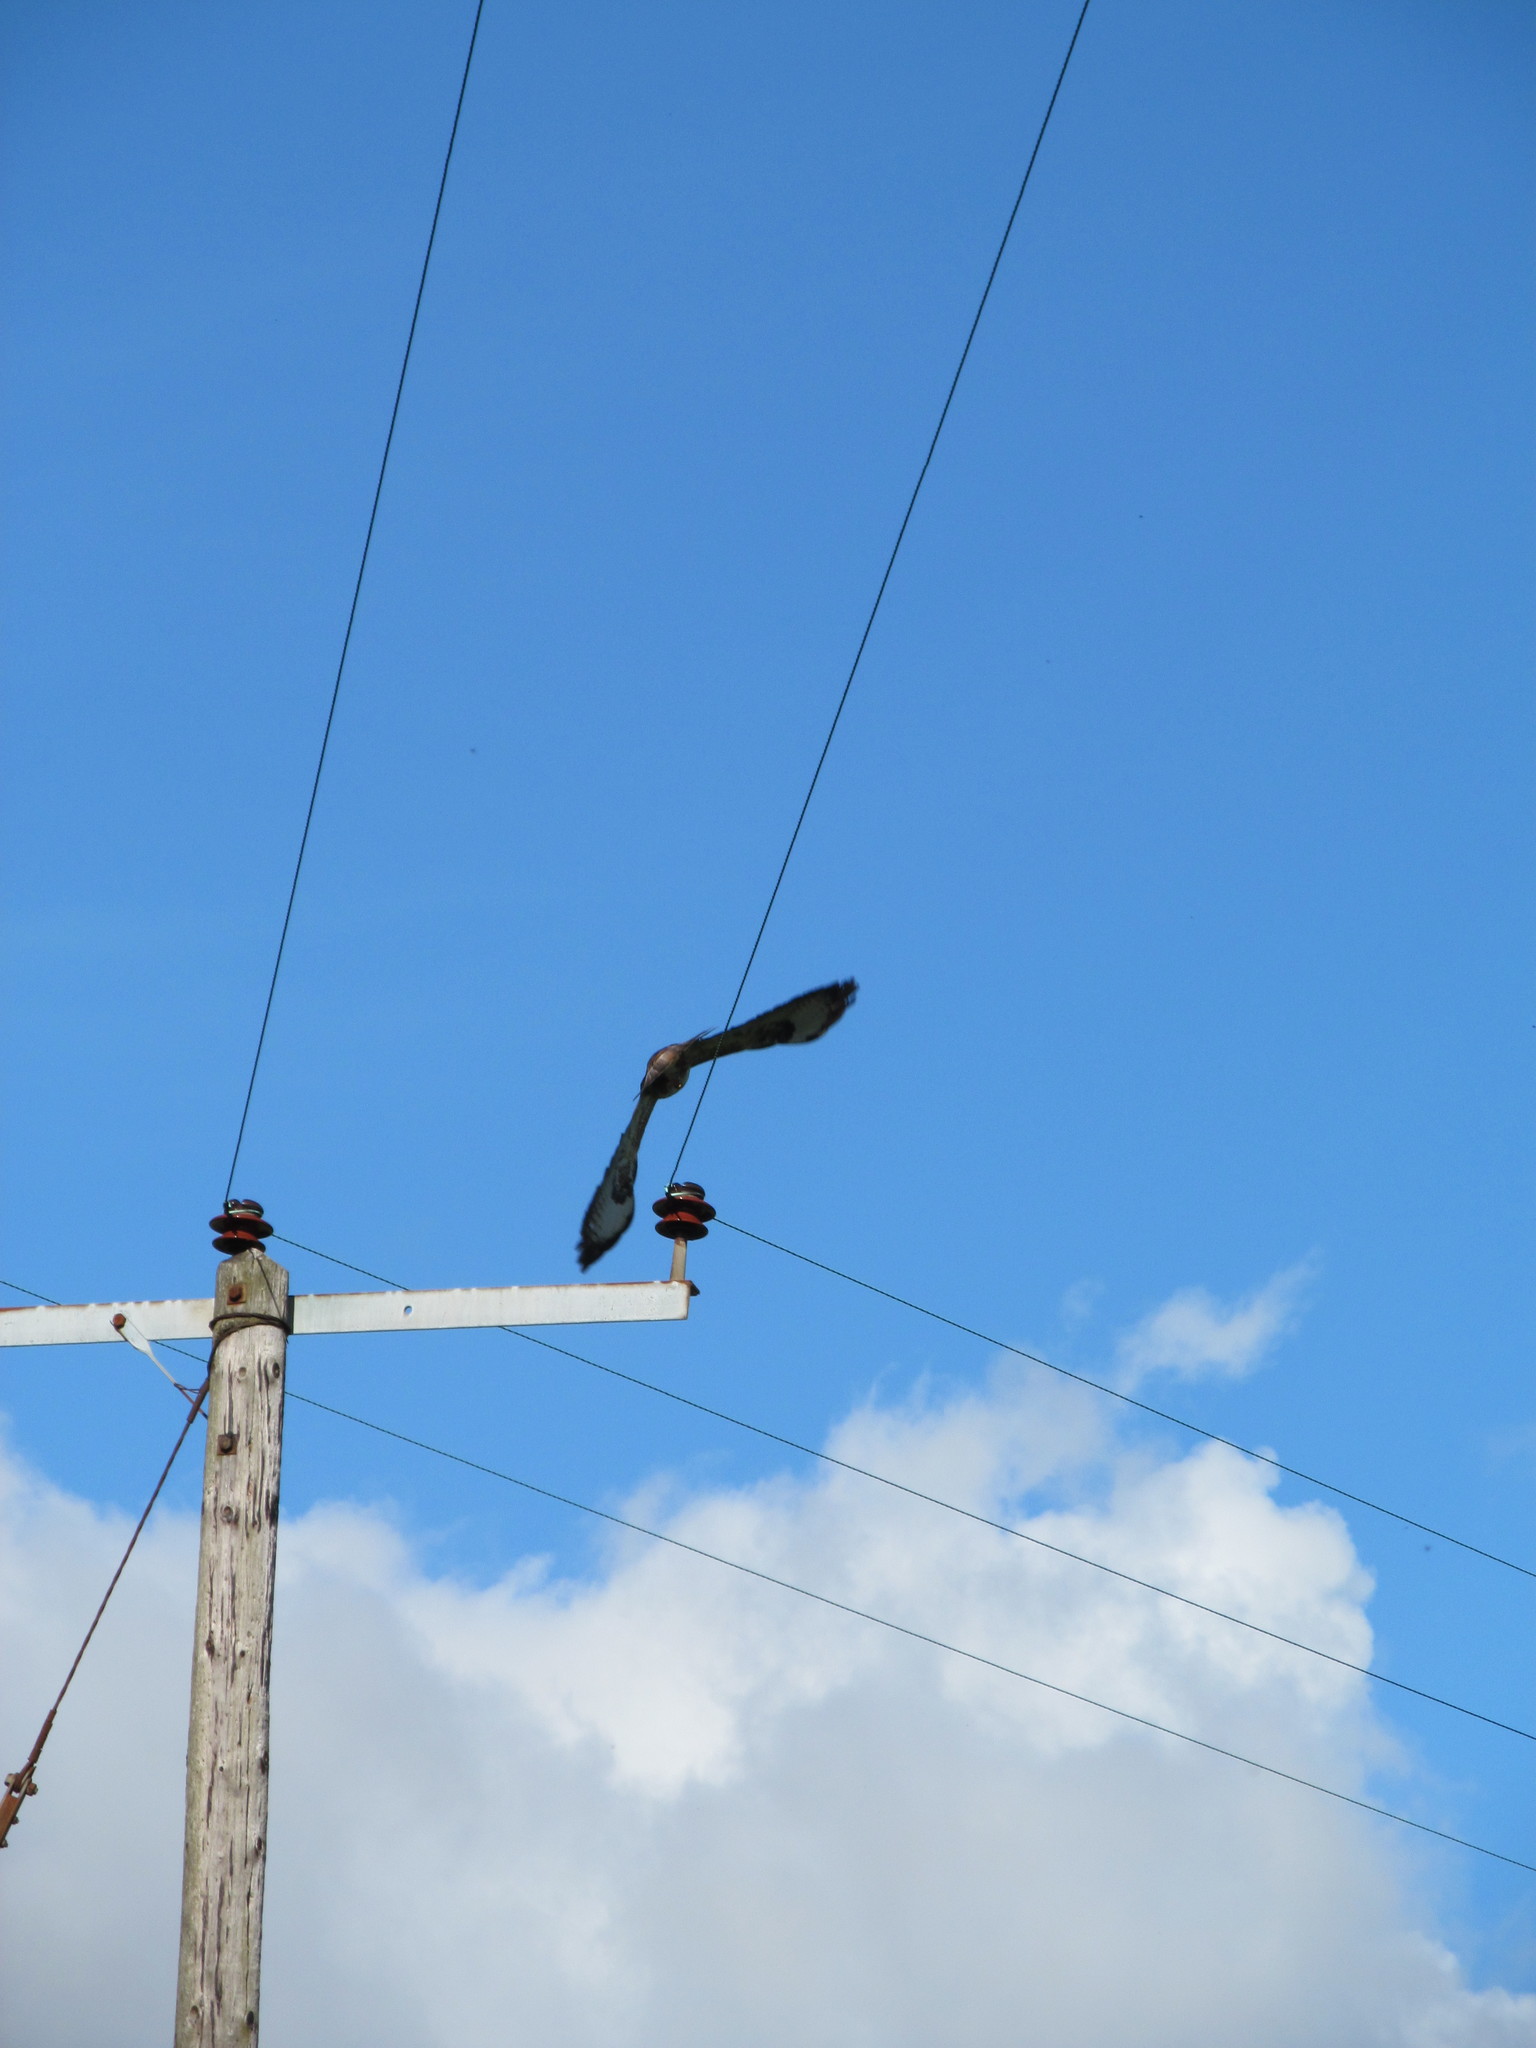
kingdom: Animalia
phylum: Chordata
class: Aves
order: Accipitriformes
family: Accipitridae
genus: Buteo
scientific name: Buteo buteo
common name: Common buzzard
